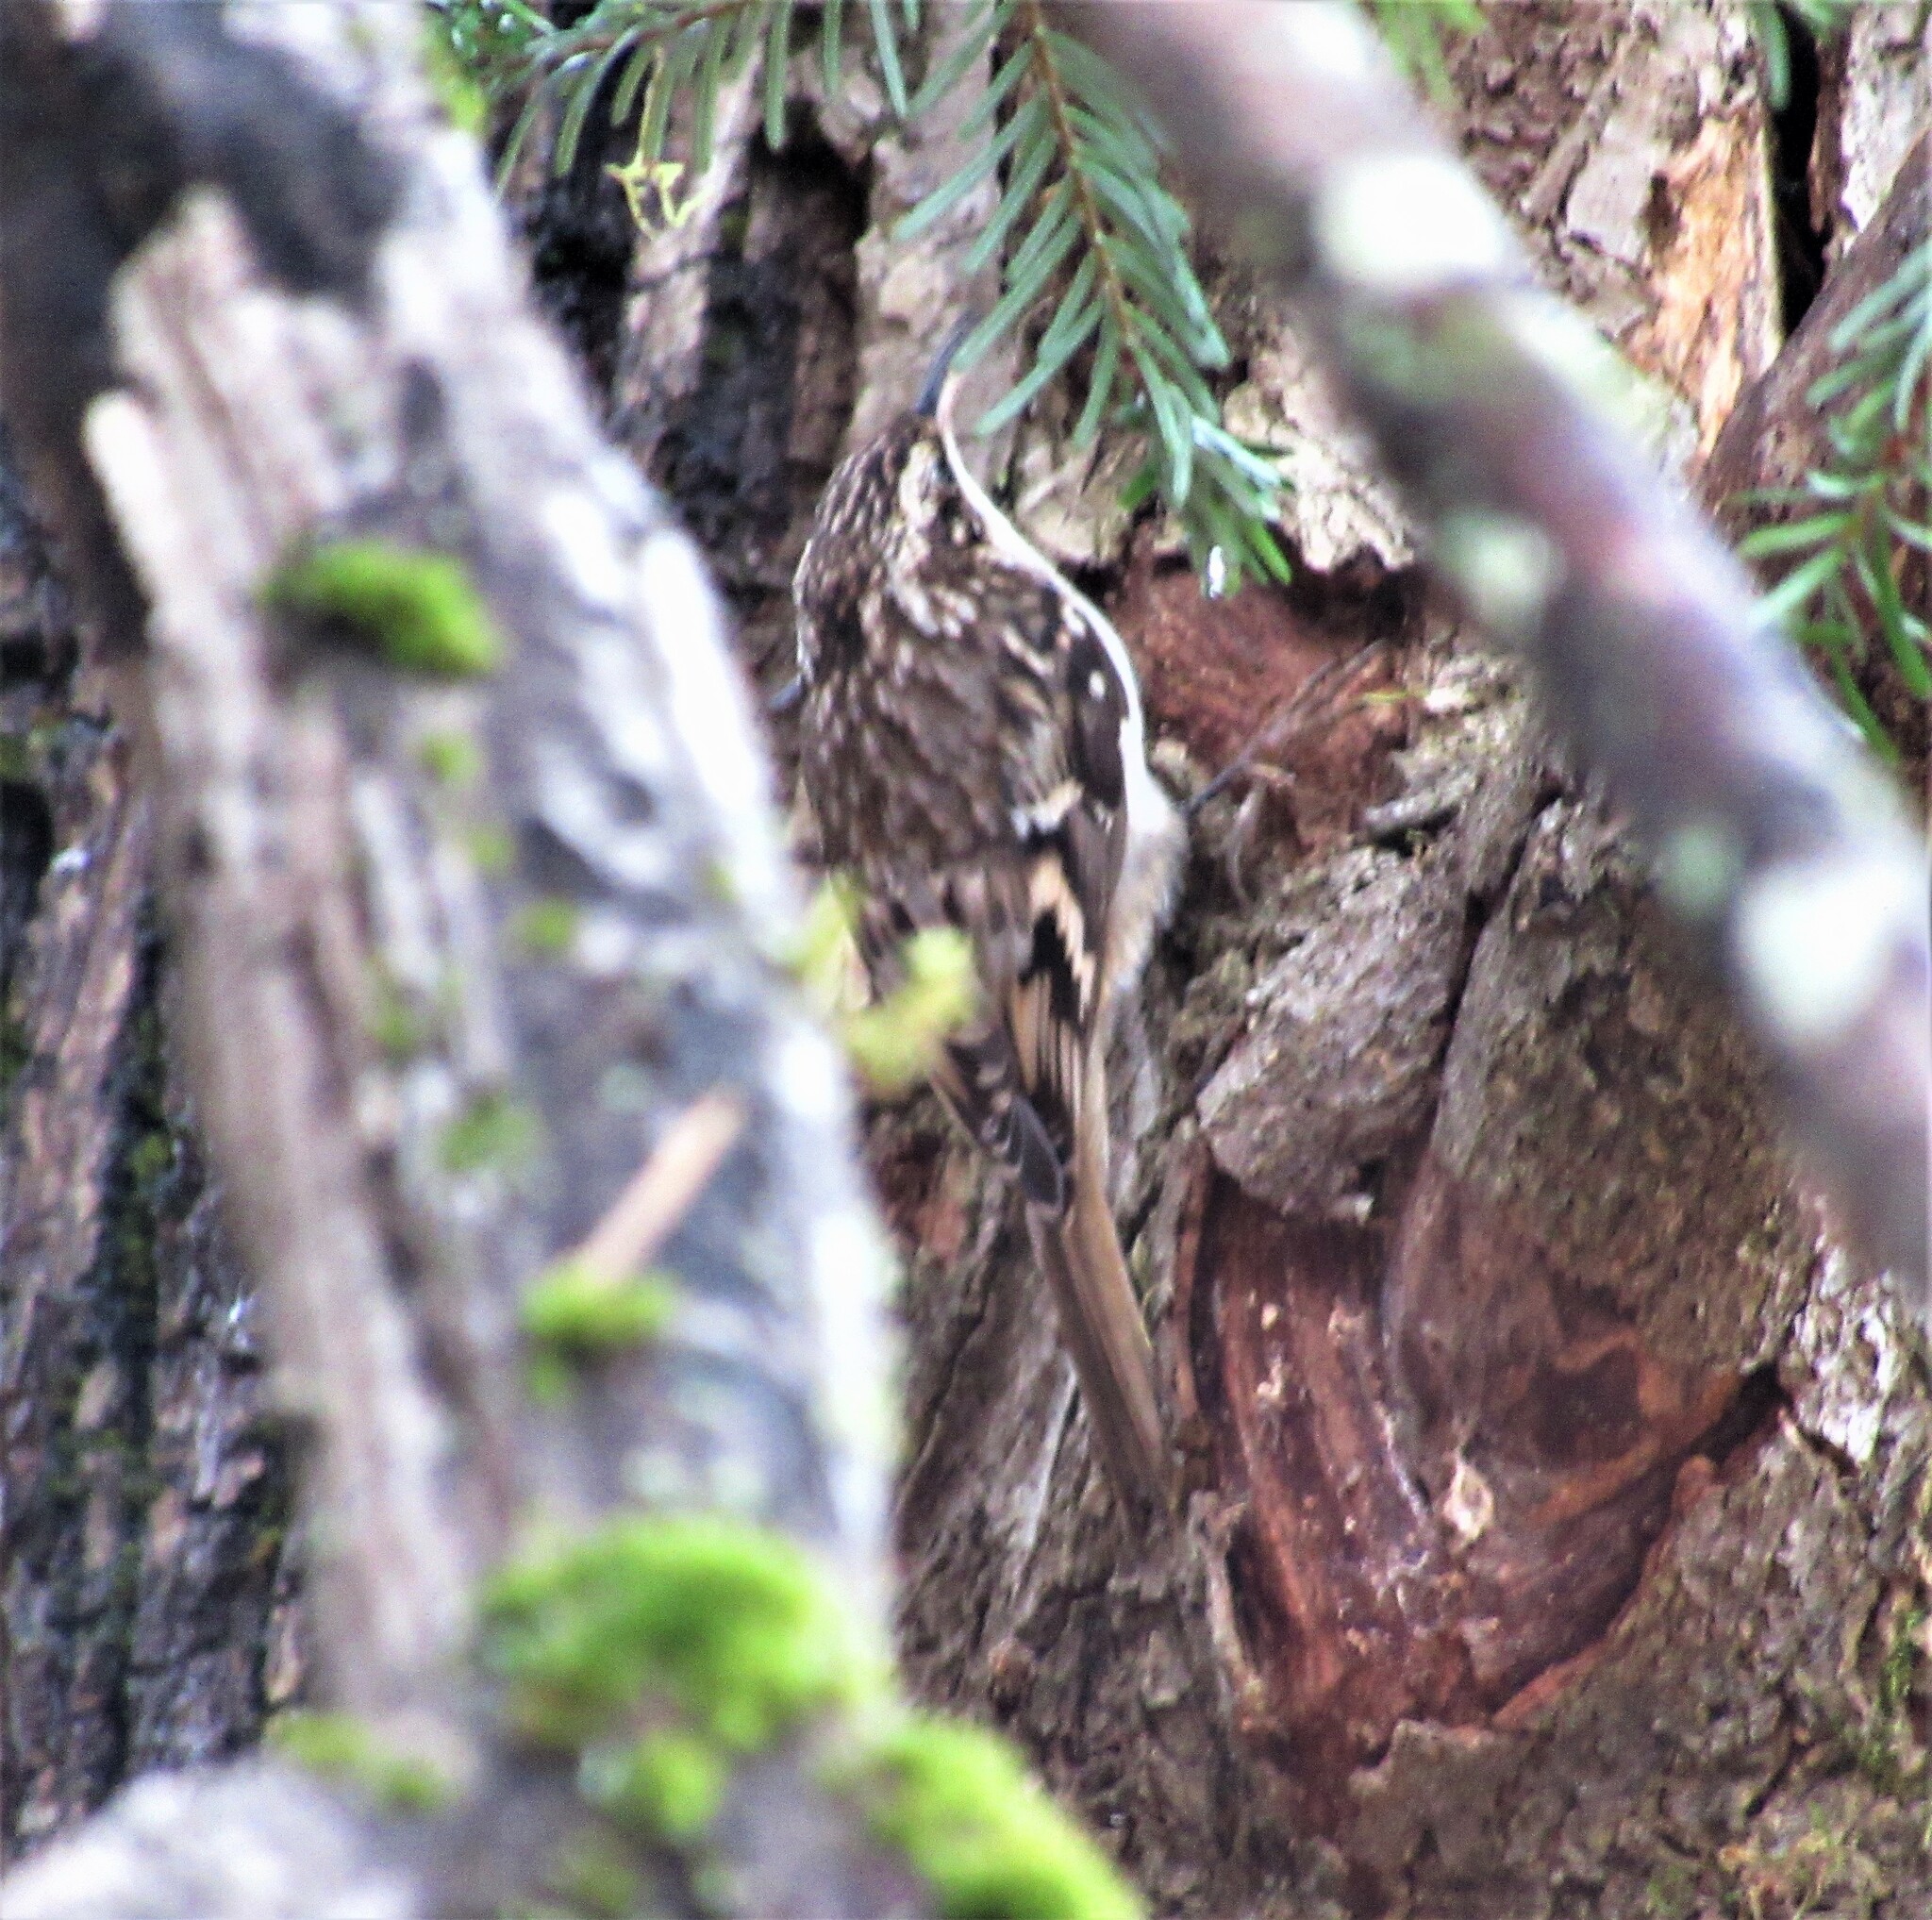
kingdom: Animalia
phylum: Chordata
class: Aves
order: Passeriformes
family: Certhiidae
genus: Certhia
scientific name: Certhia americana
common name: Brown creeper
